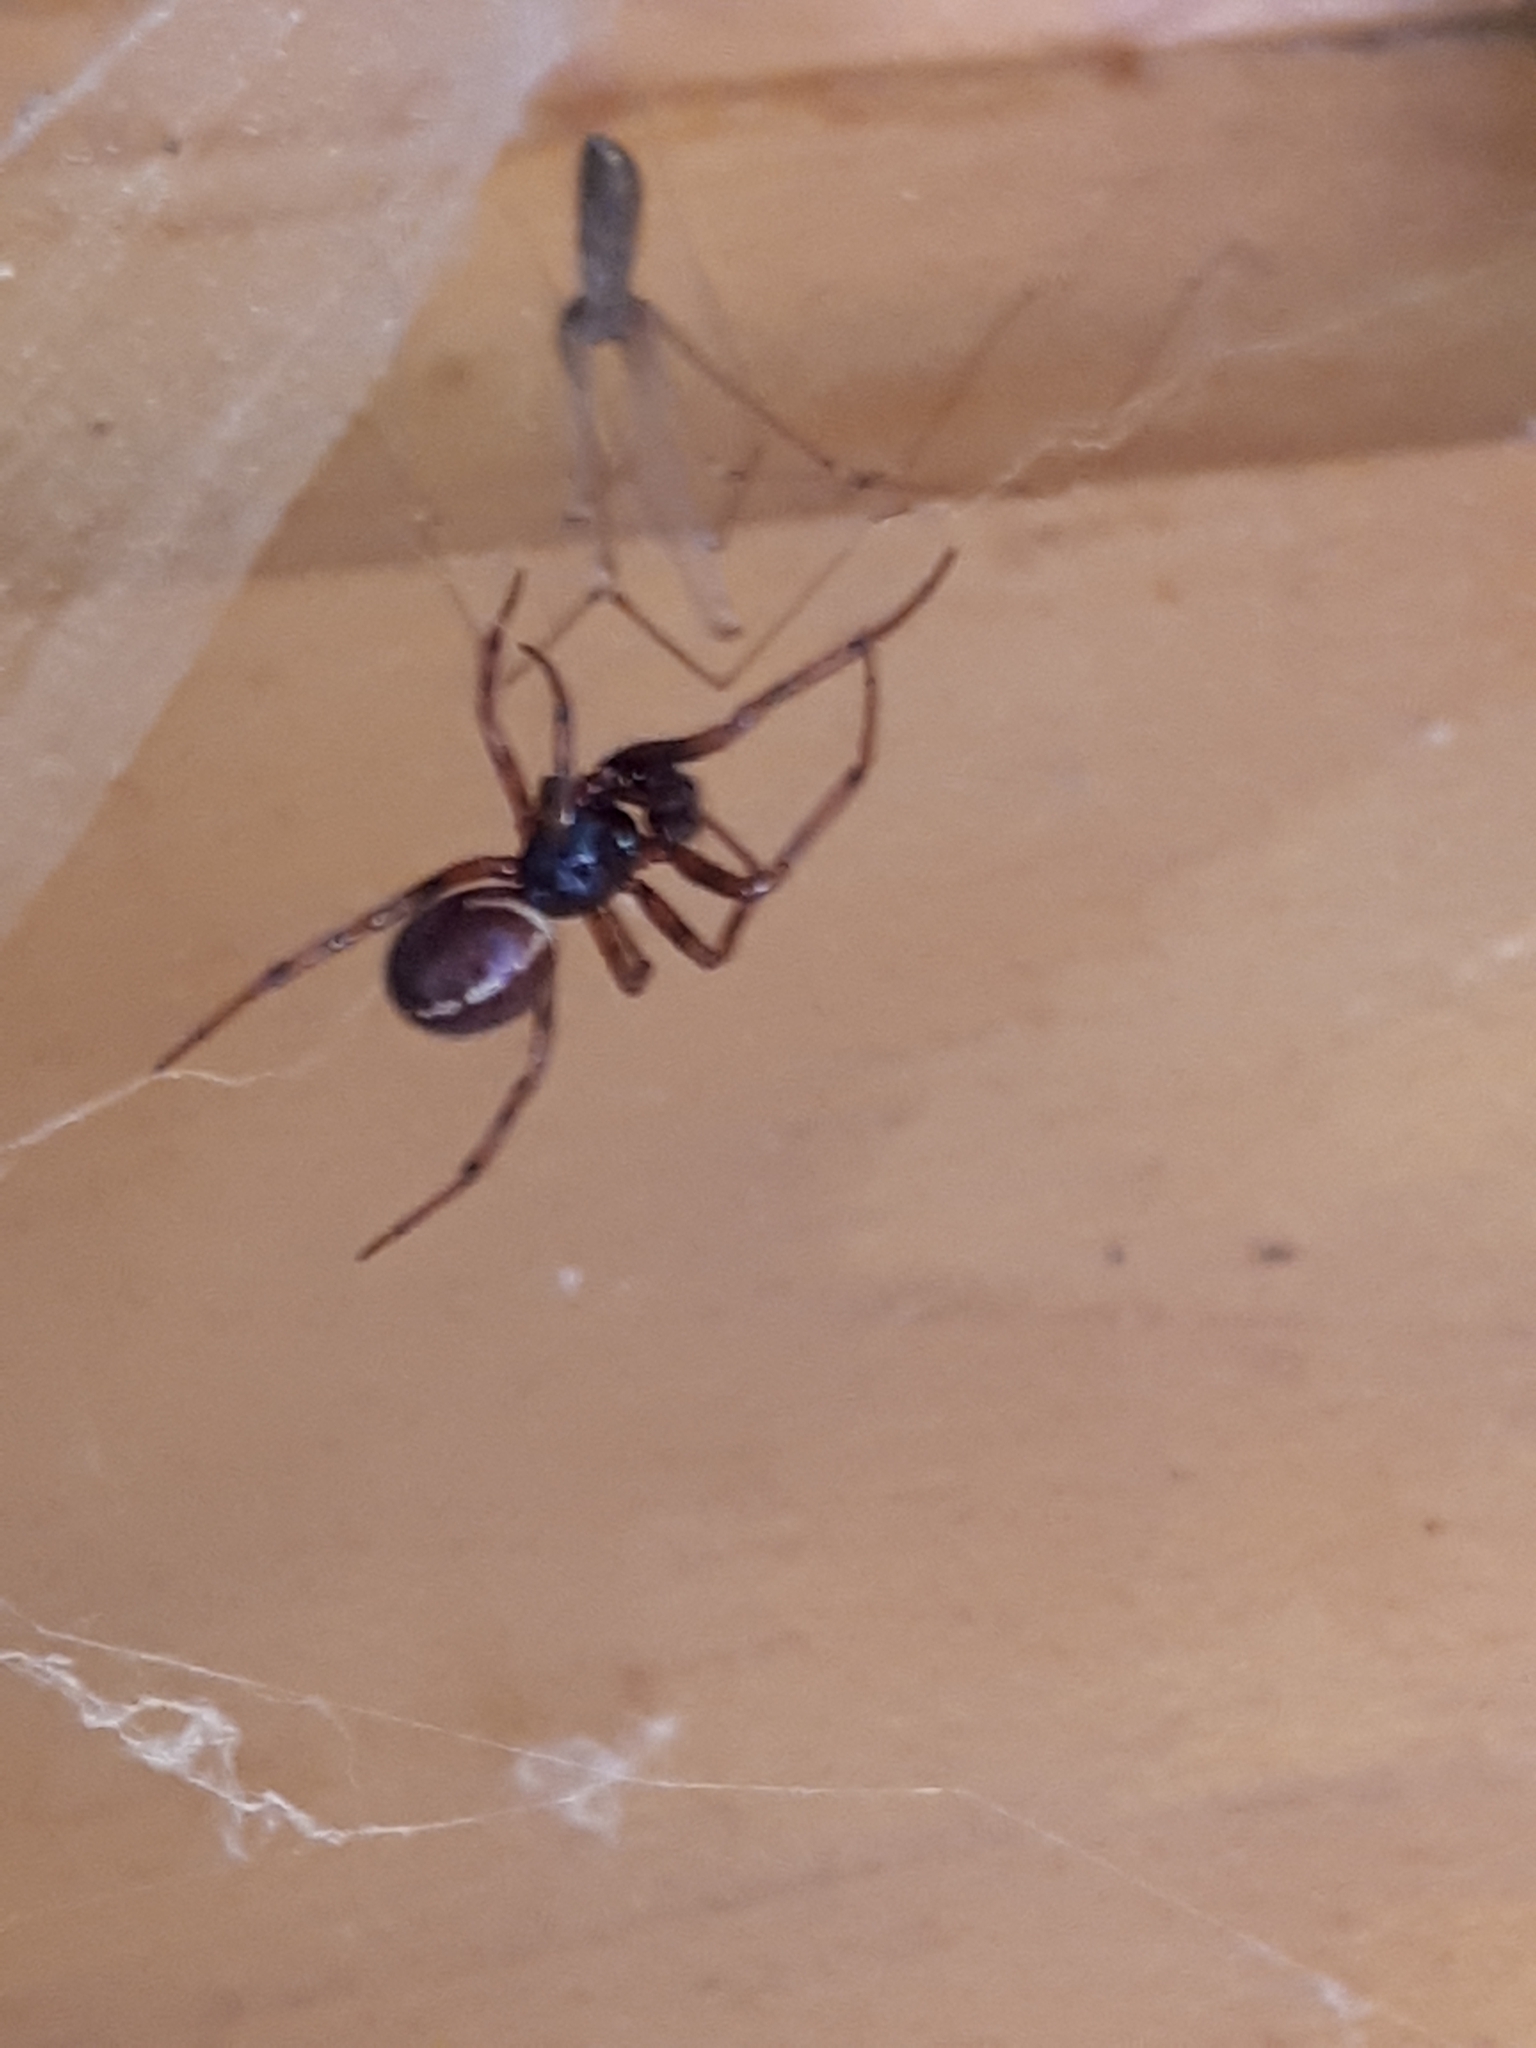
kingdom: Animalia
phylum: Arthropoda
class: Arachnida
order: Araneae
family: Theridiidae
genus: Steatoda
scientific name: Steatoda bipunctata
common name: False widow
